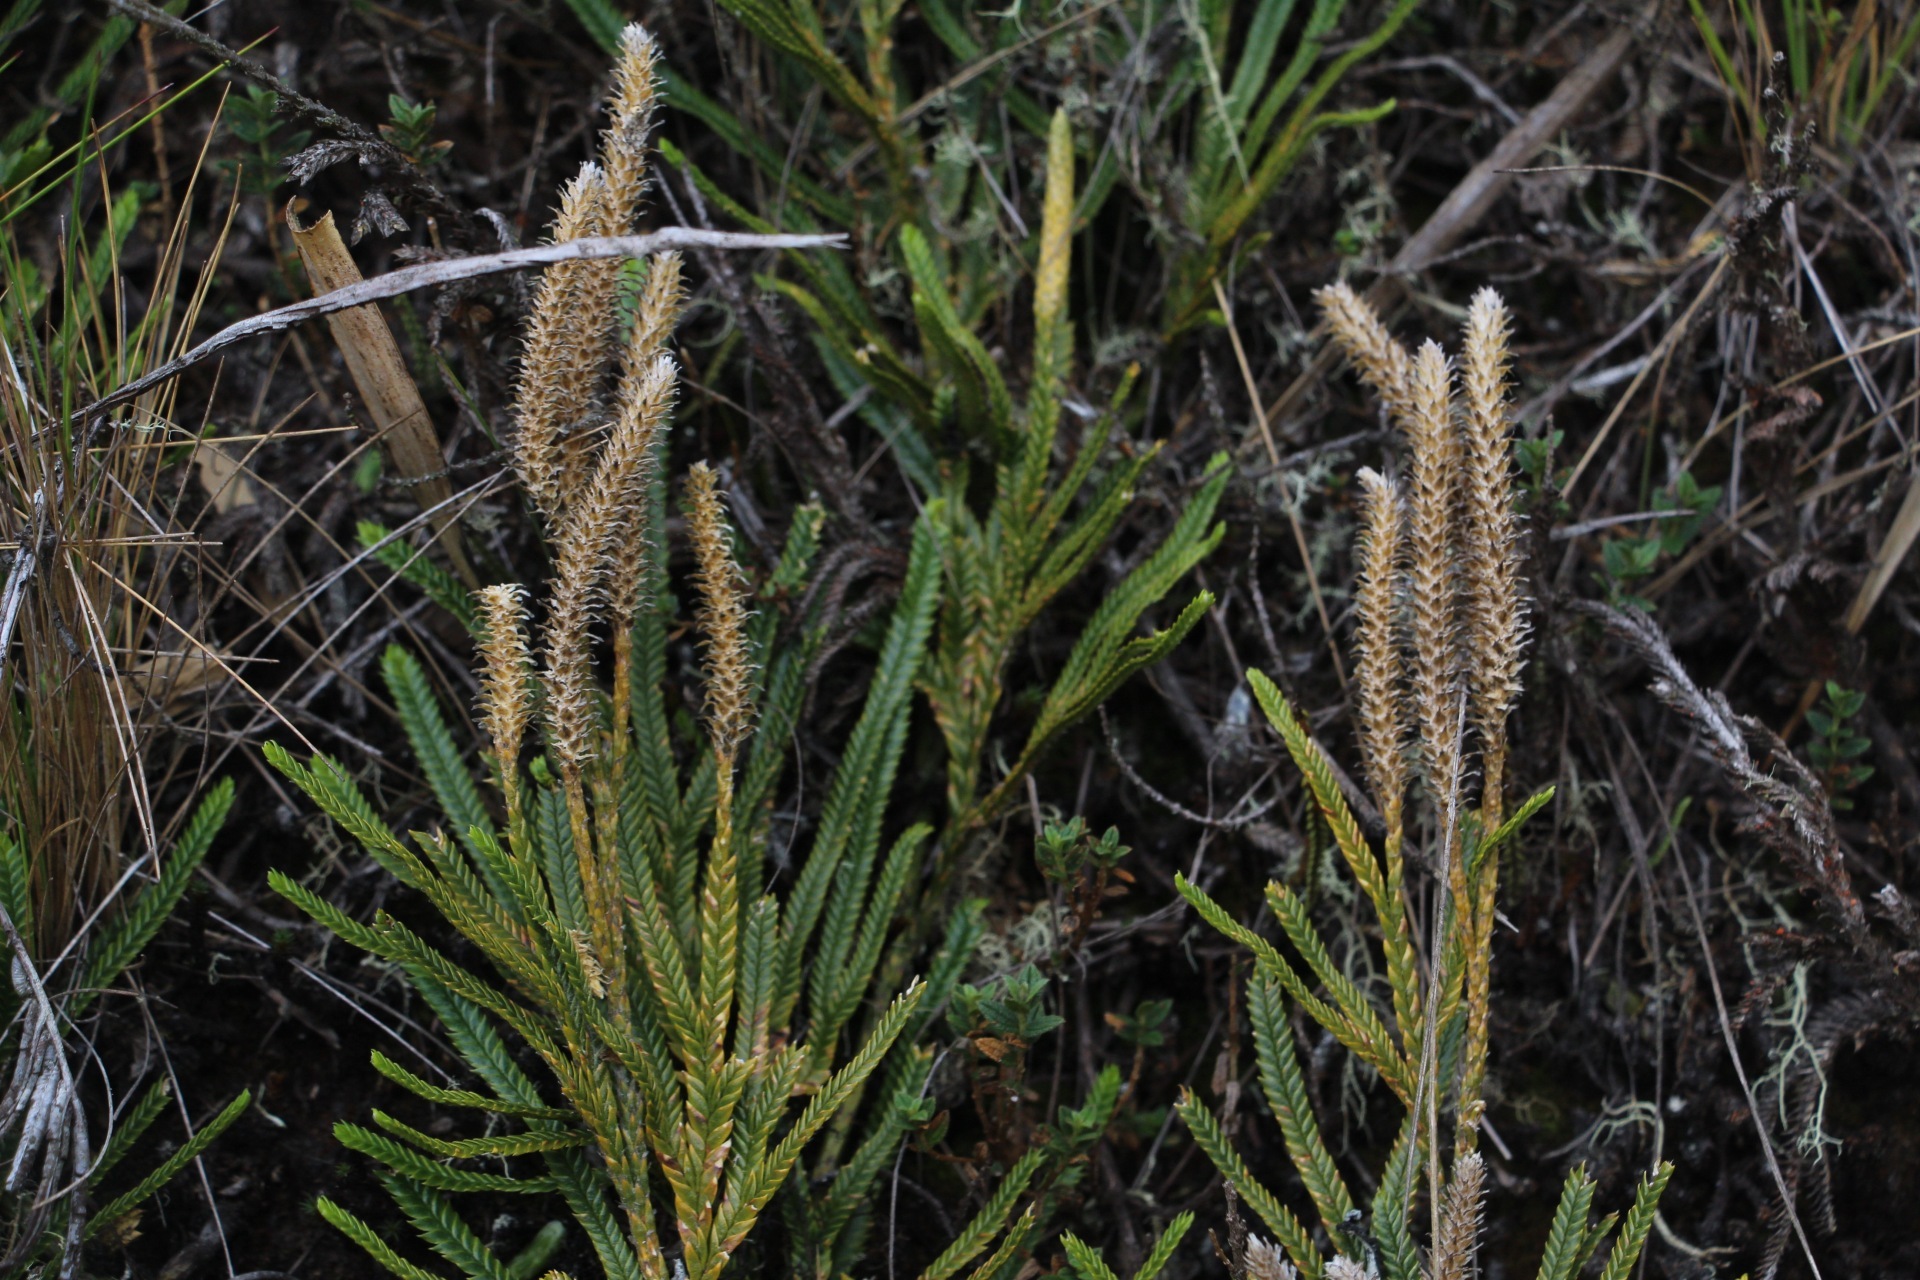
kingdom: Plantae
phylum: Tracheophyta
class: Lycopodiopsida
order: Lycopodiales
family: Lycopodiaceae
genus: Diphasium
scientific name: Diphasium jussiaei
